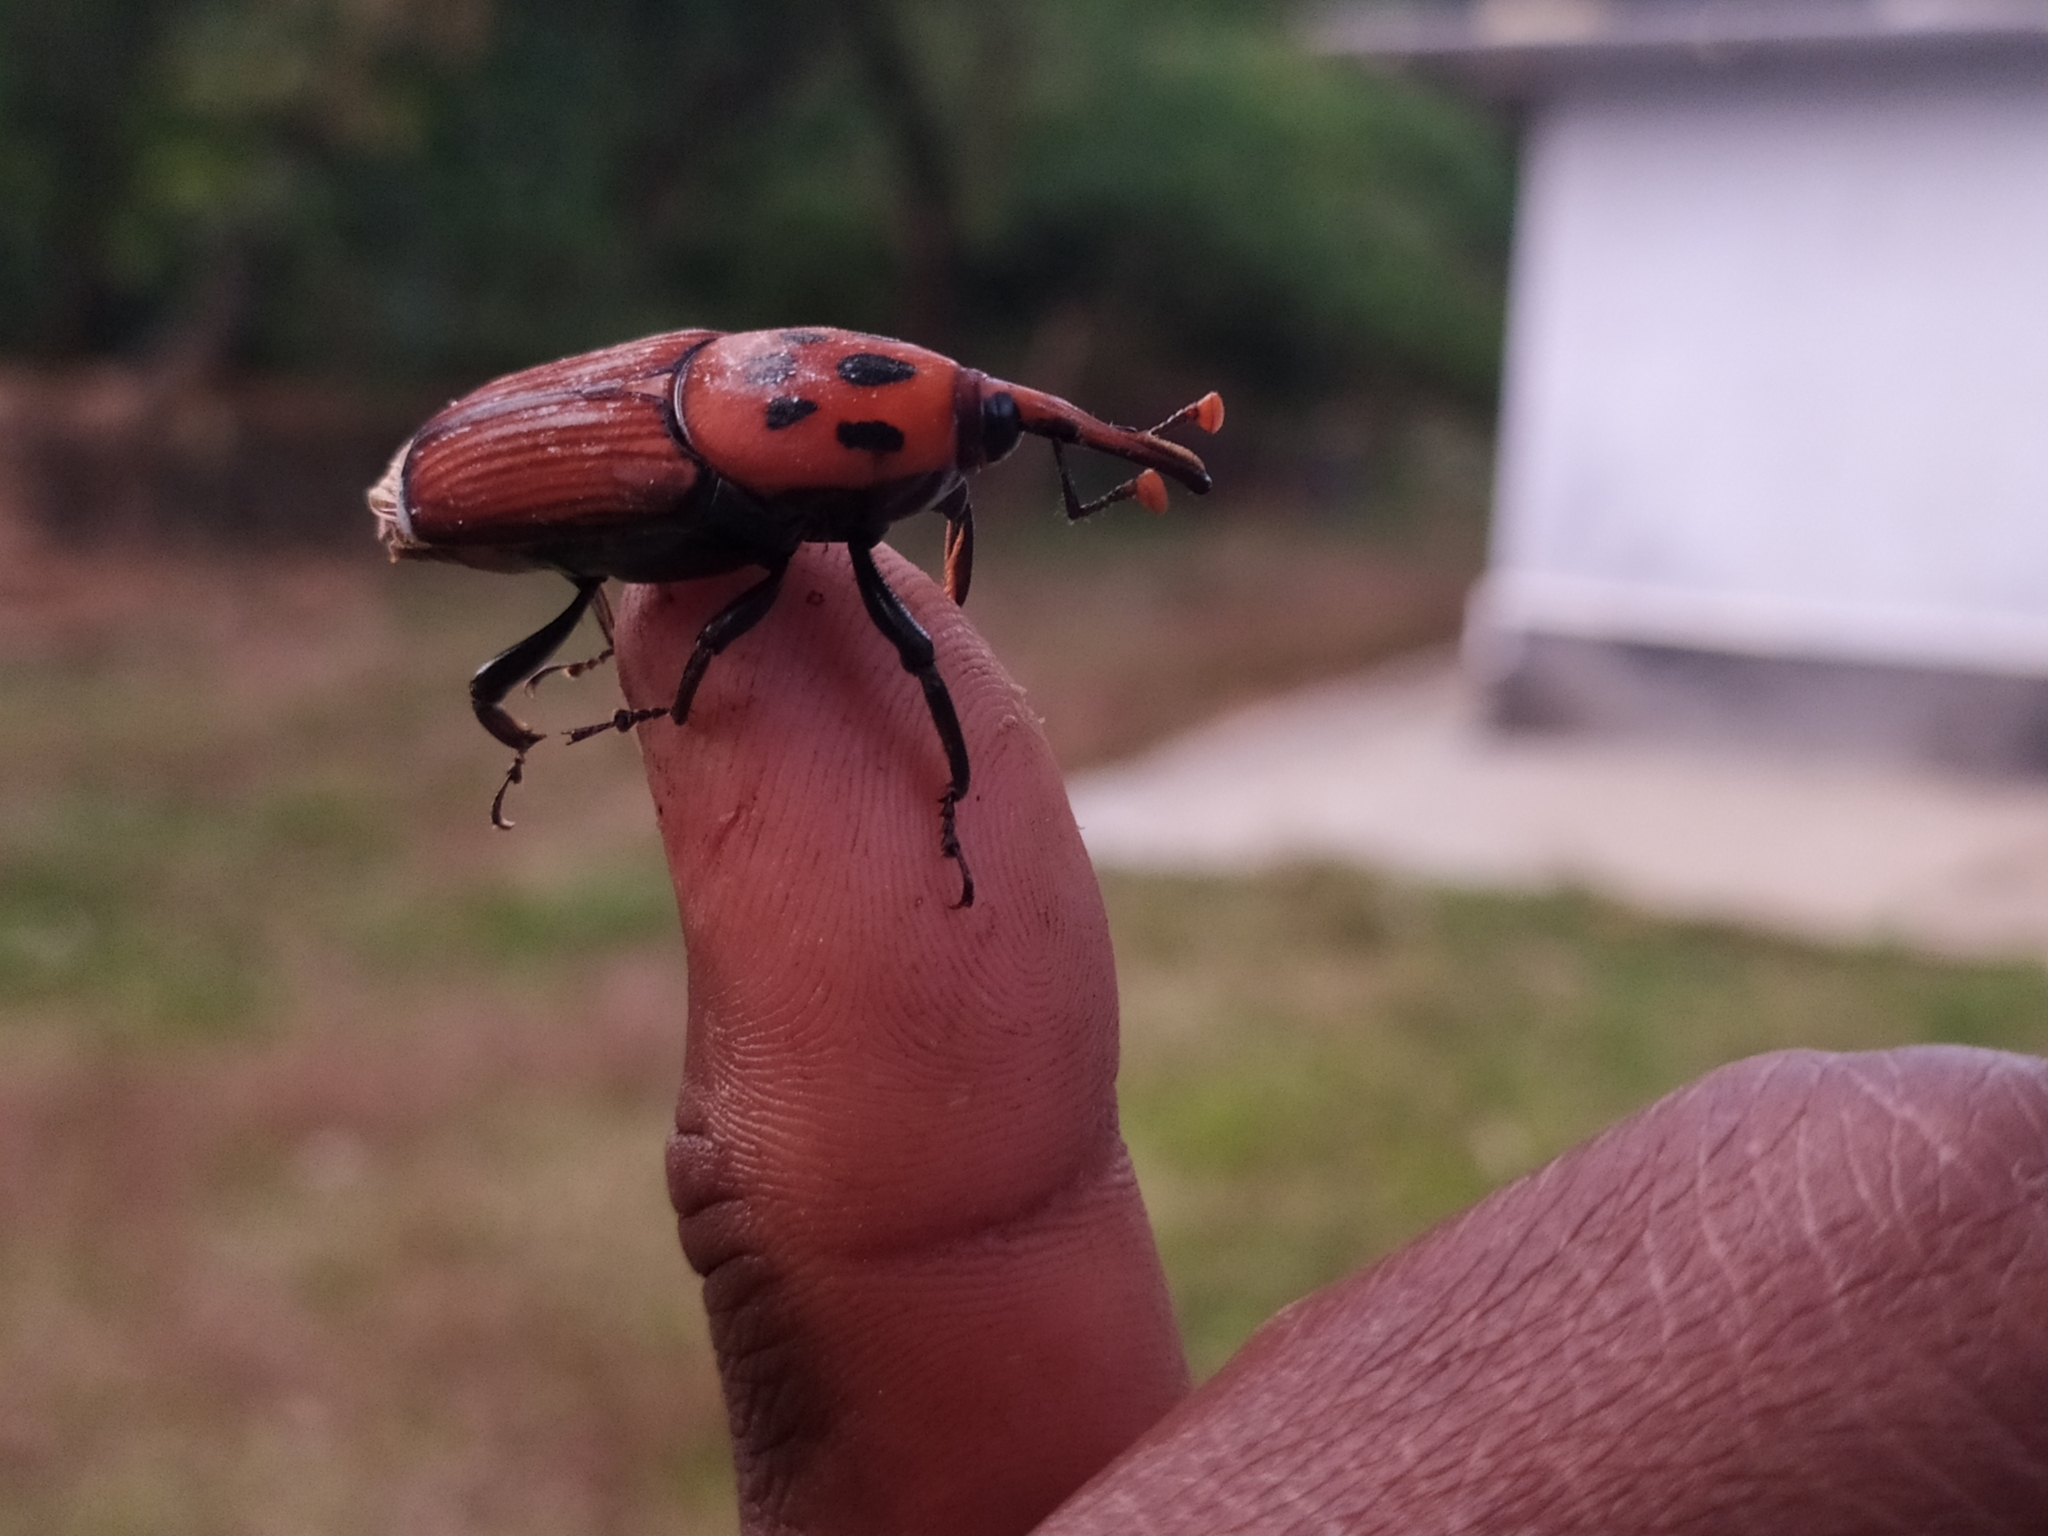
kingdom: Animalia
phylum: Arthropoda
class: Insecta
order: Coleoptera
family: Dryophthoridae
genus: Rhynchophorus
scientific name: Rhynchophorus ferrugineus
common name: Red palm weevil
